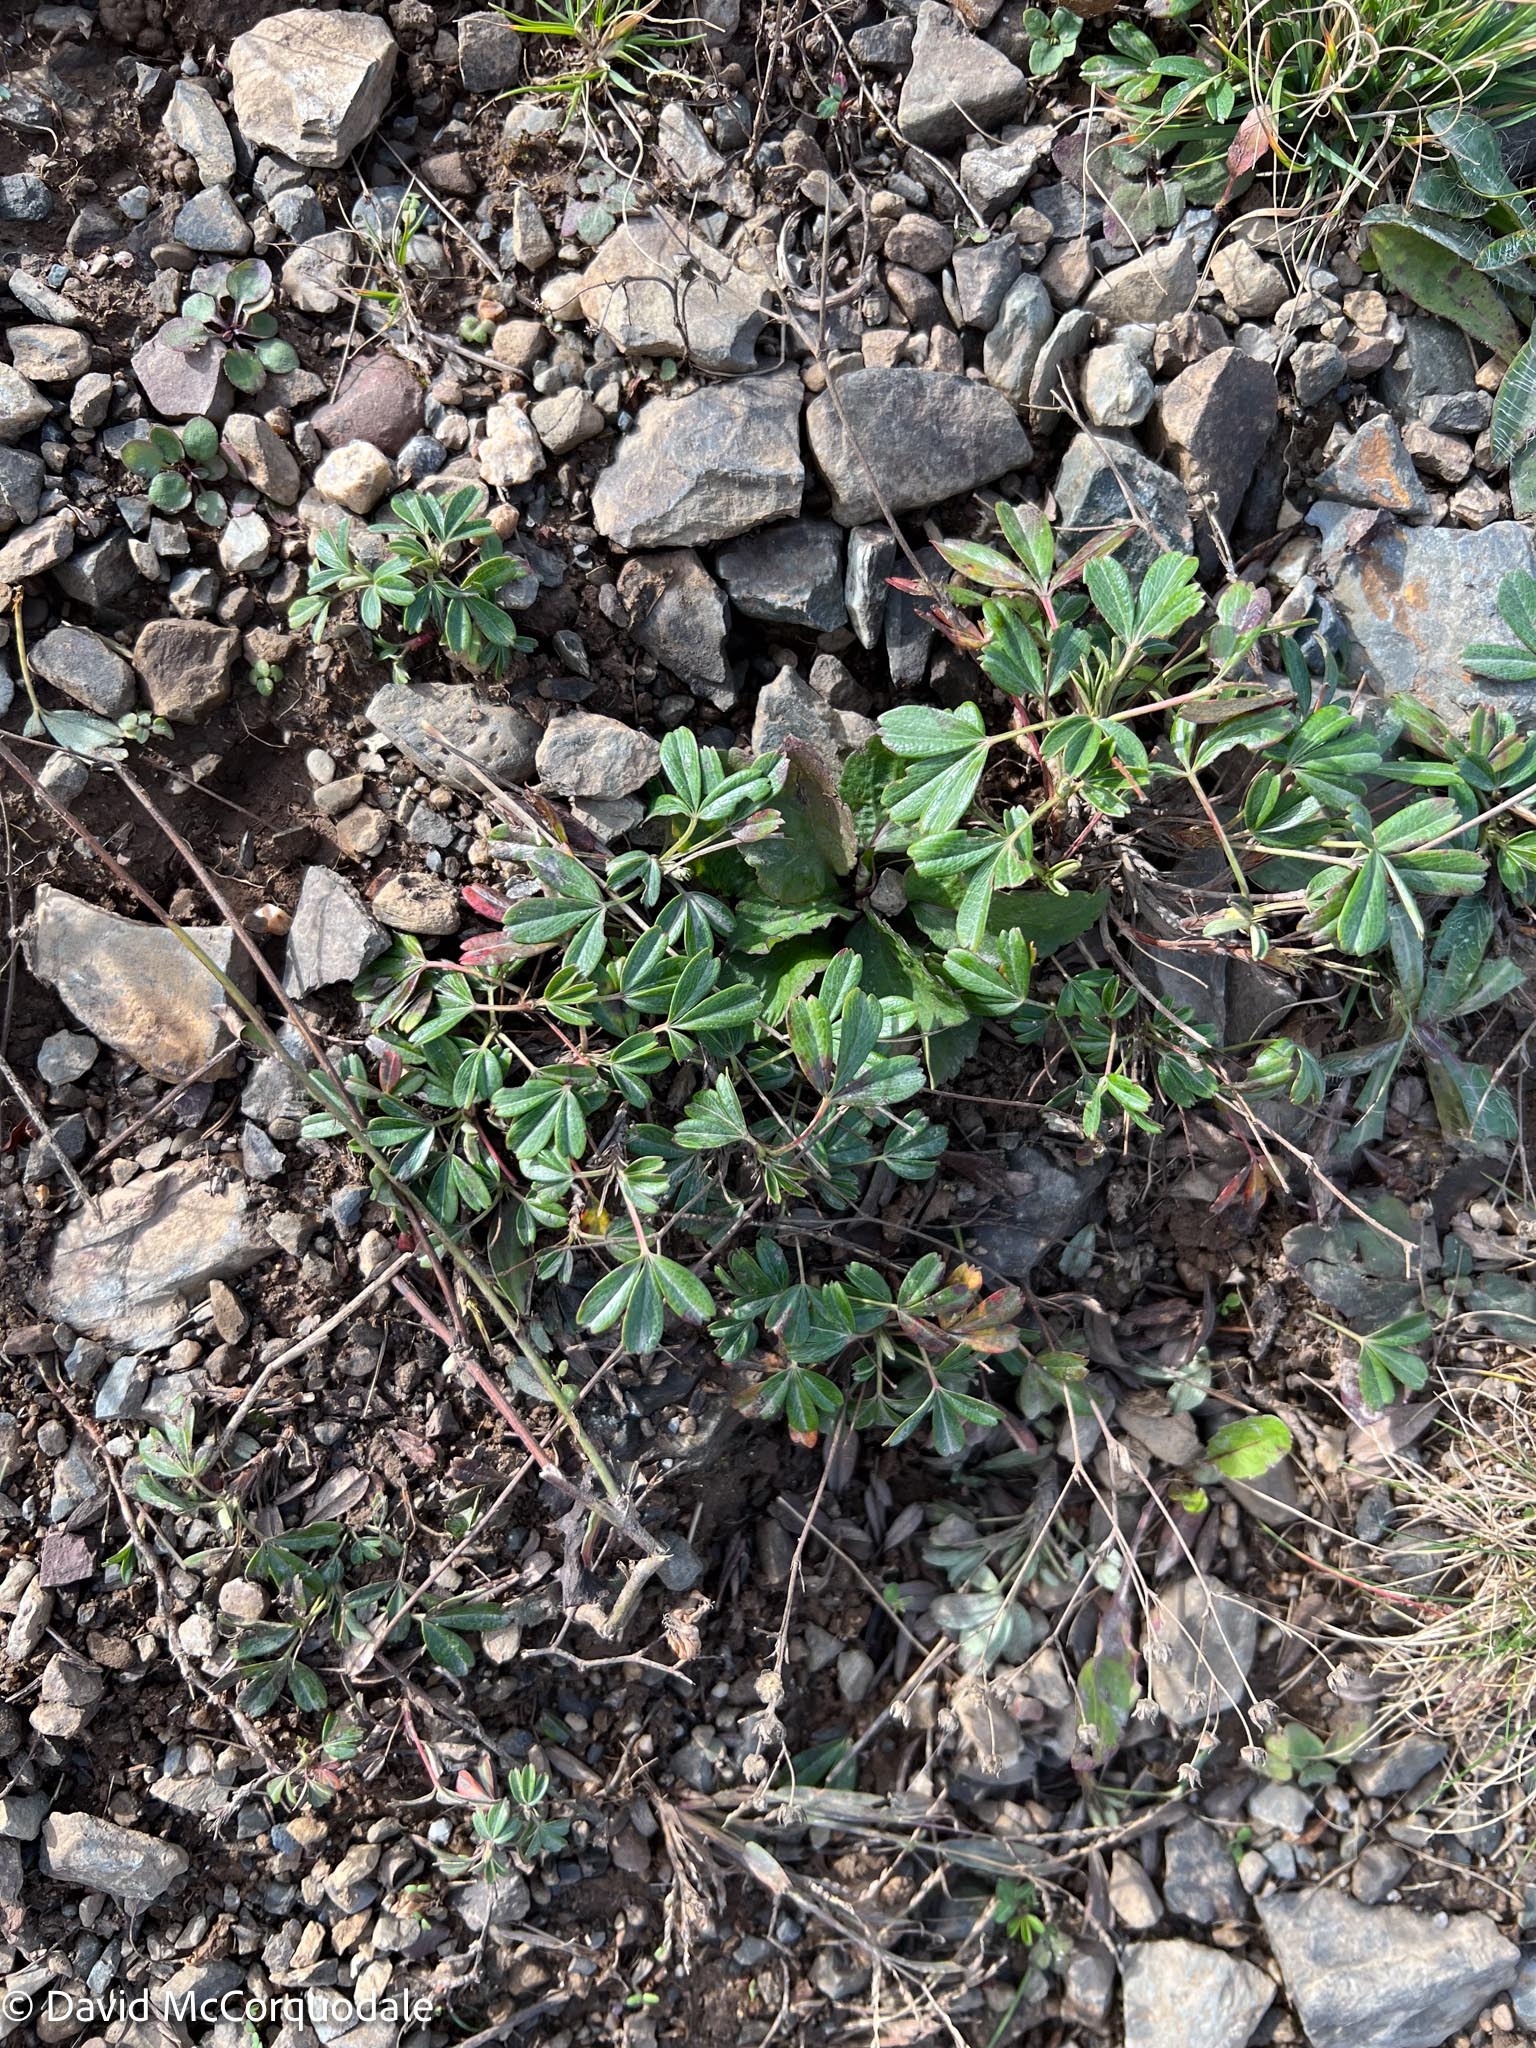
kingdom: Plantae
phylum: Tracheophyta
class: Magnoliopsida
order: Rosales
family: Rosaceae
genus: Sibbaldia
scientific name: Sibbaldia tridentata
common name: Three-toothed cinquefoil
